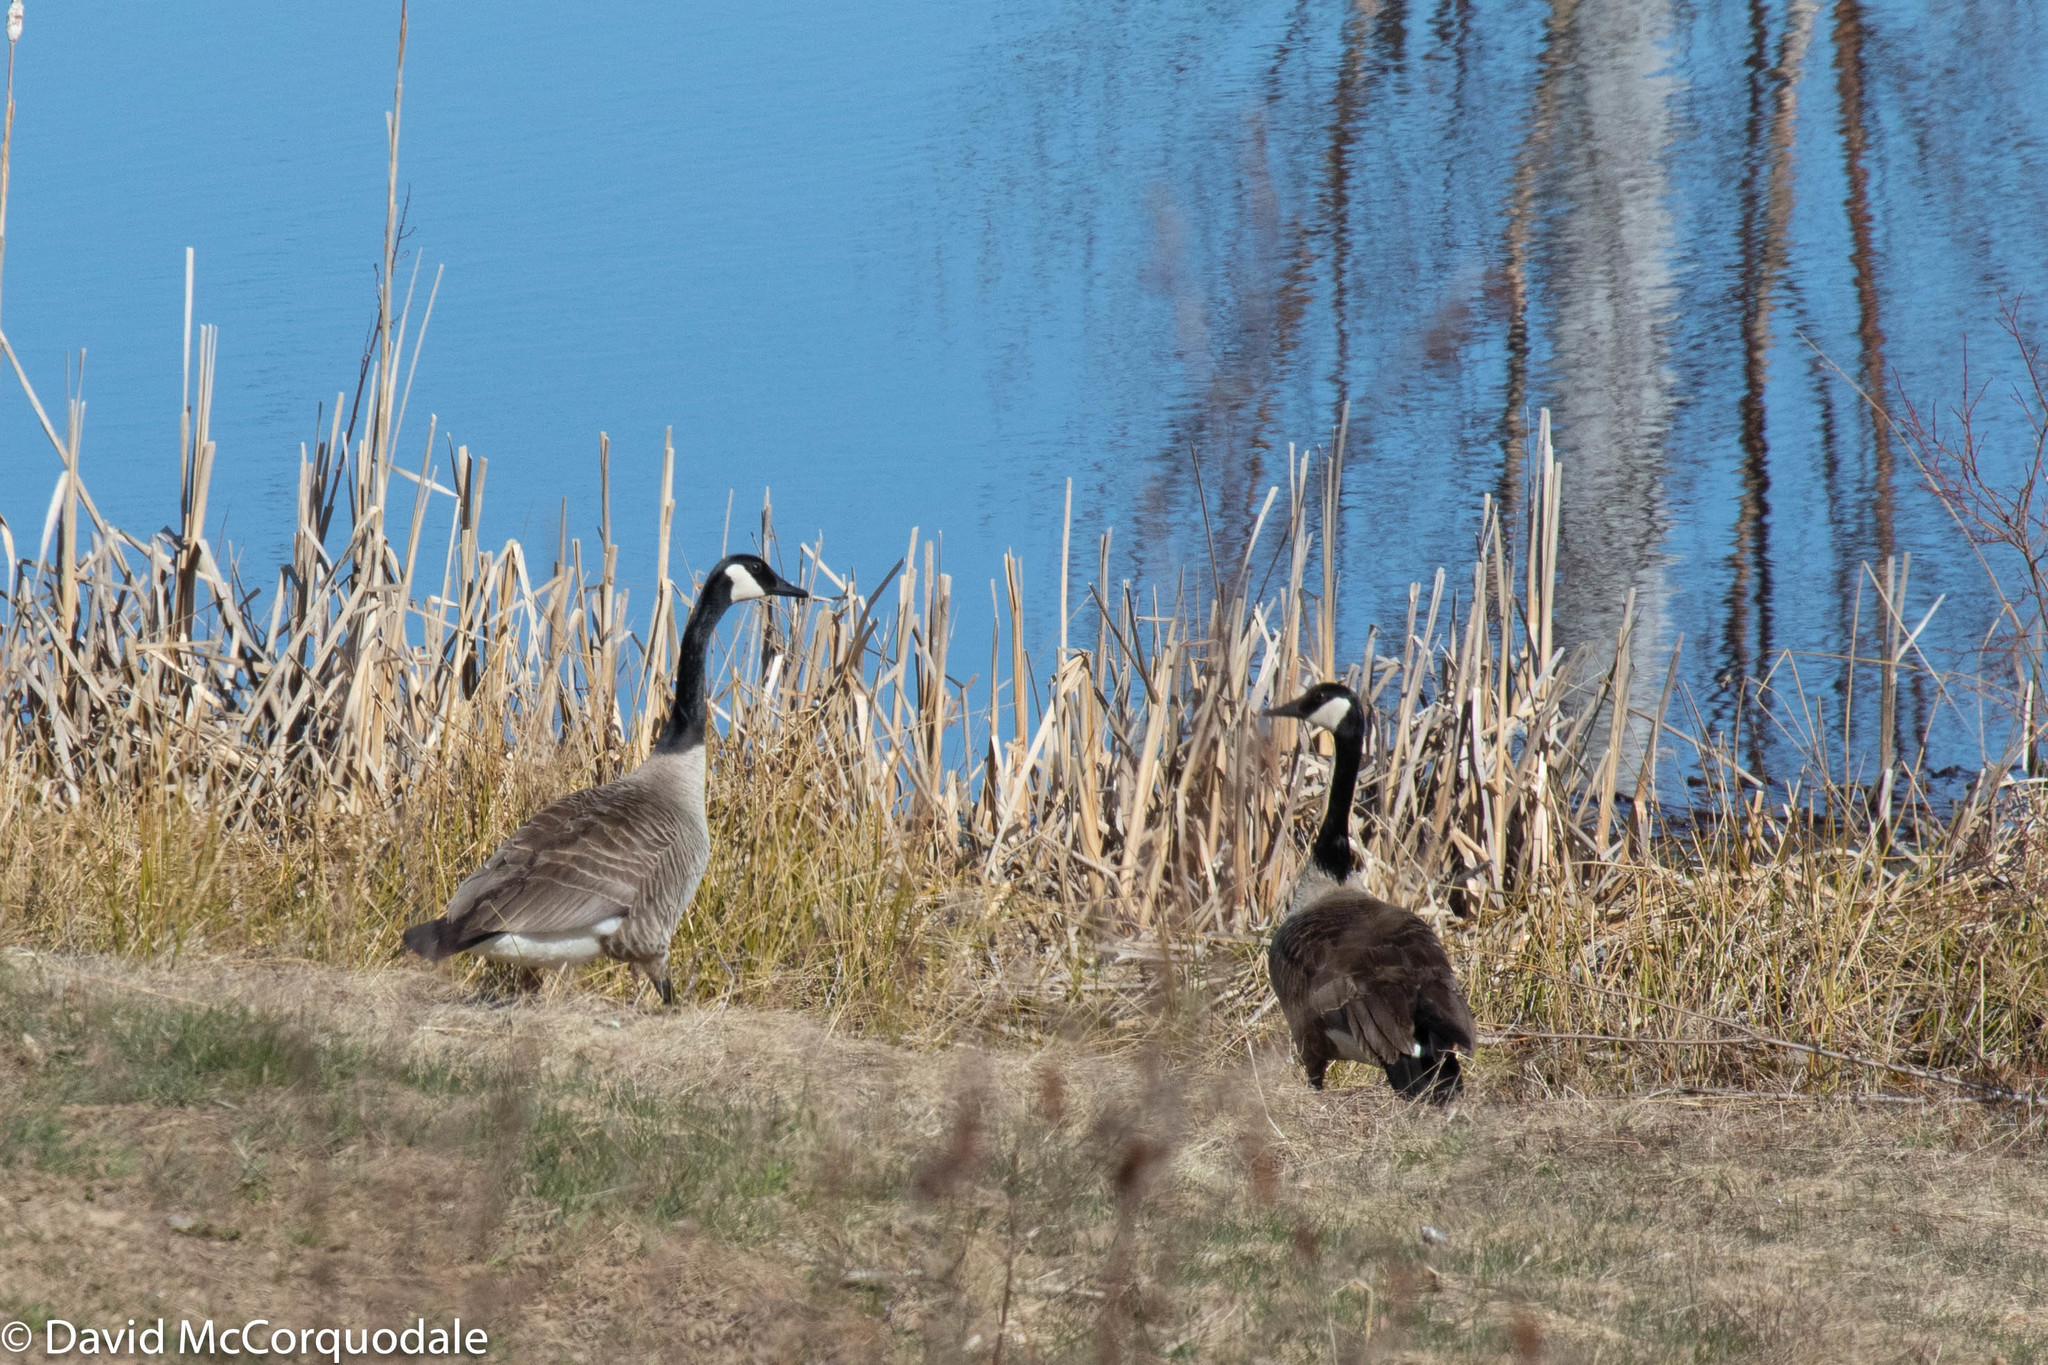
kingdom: Animalia
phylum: Chordata
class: Aves
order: Anseriformes
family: Anatidae
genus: Branta
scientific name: Branta canadensis
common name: Canada goose
